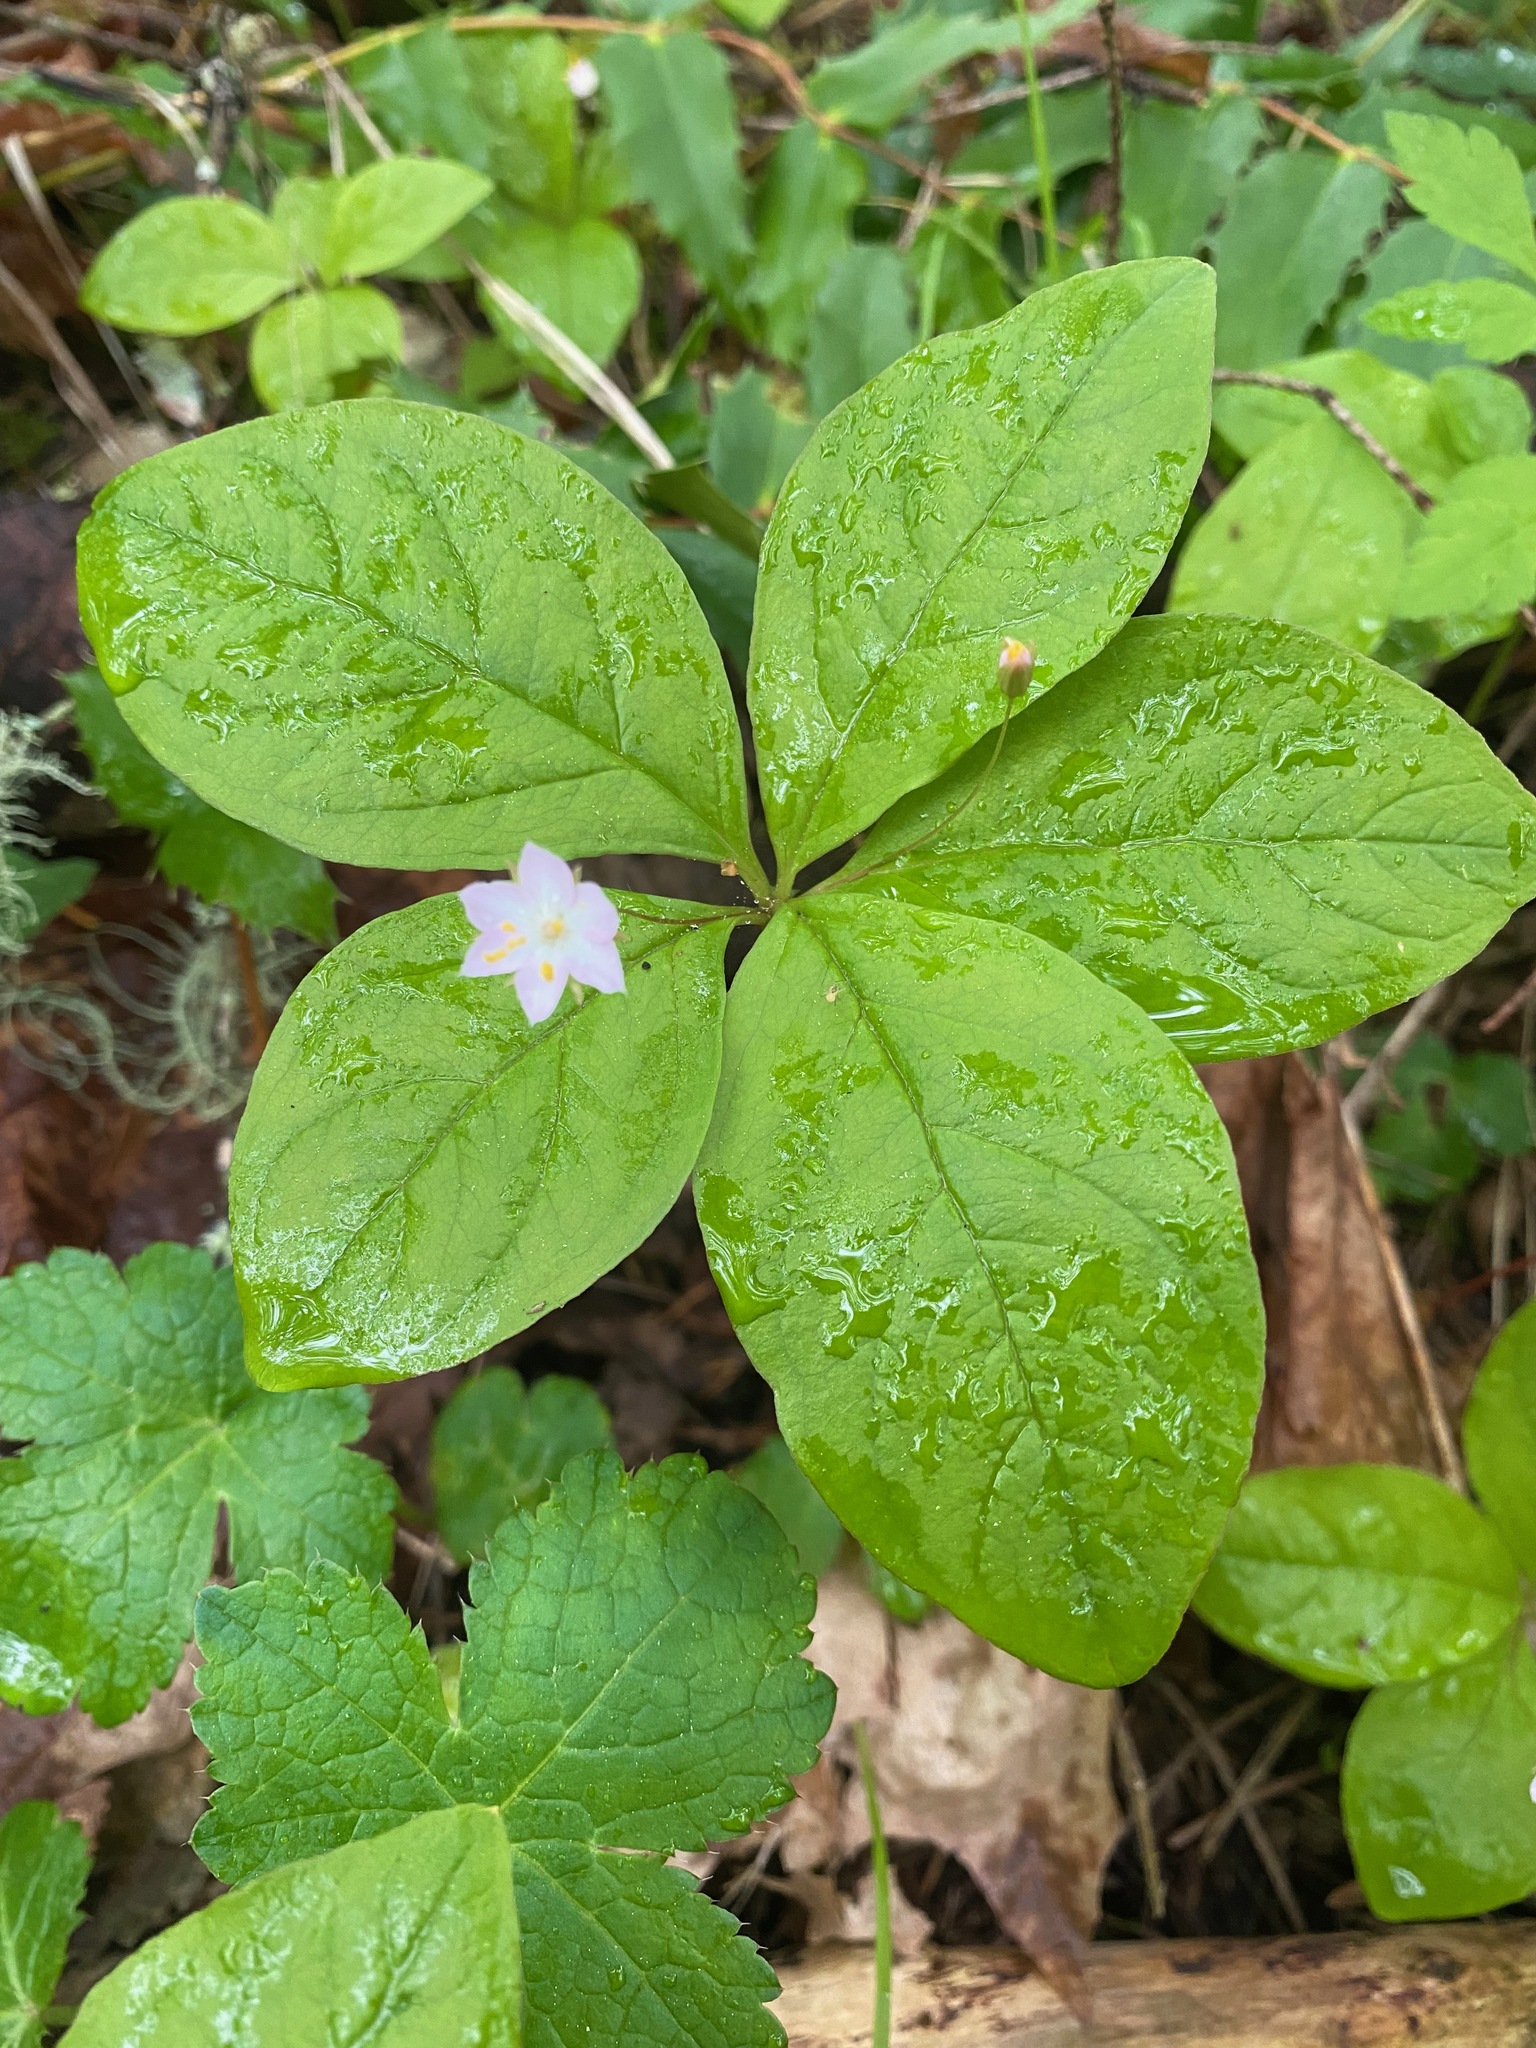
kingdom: Plantae
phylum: Tracheophyta
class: Magnoliopsida
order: Ericales
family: Primulaceae
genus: Lysimachia
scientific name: Lysimachia latifolia
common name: Pacific starflower
